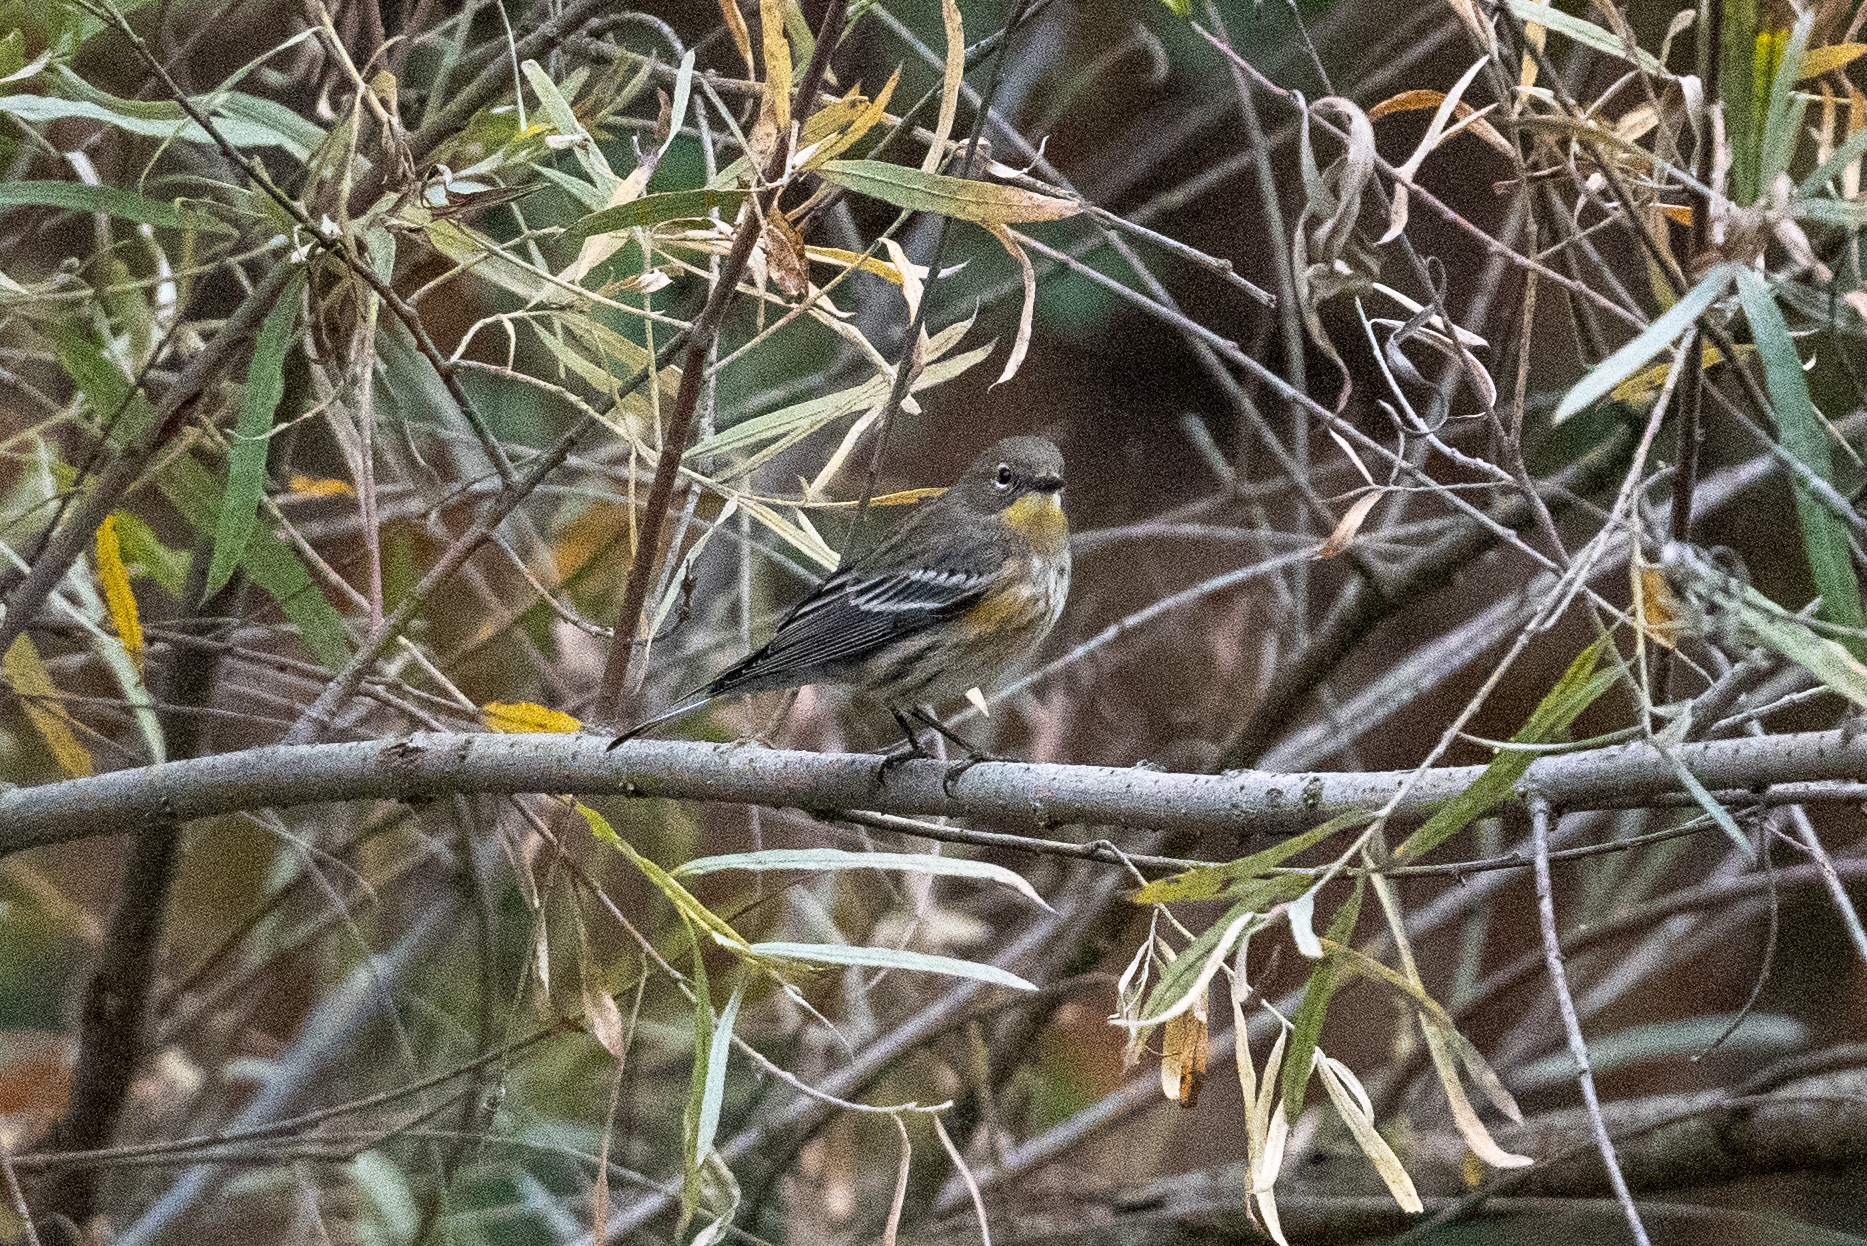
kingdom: Animalia
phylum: Chordata
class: Aves
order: Passeriformes
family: Parulidae
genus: Setophaga
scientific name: Setophaga coronata
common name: Myrtle warbler
